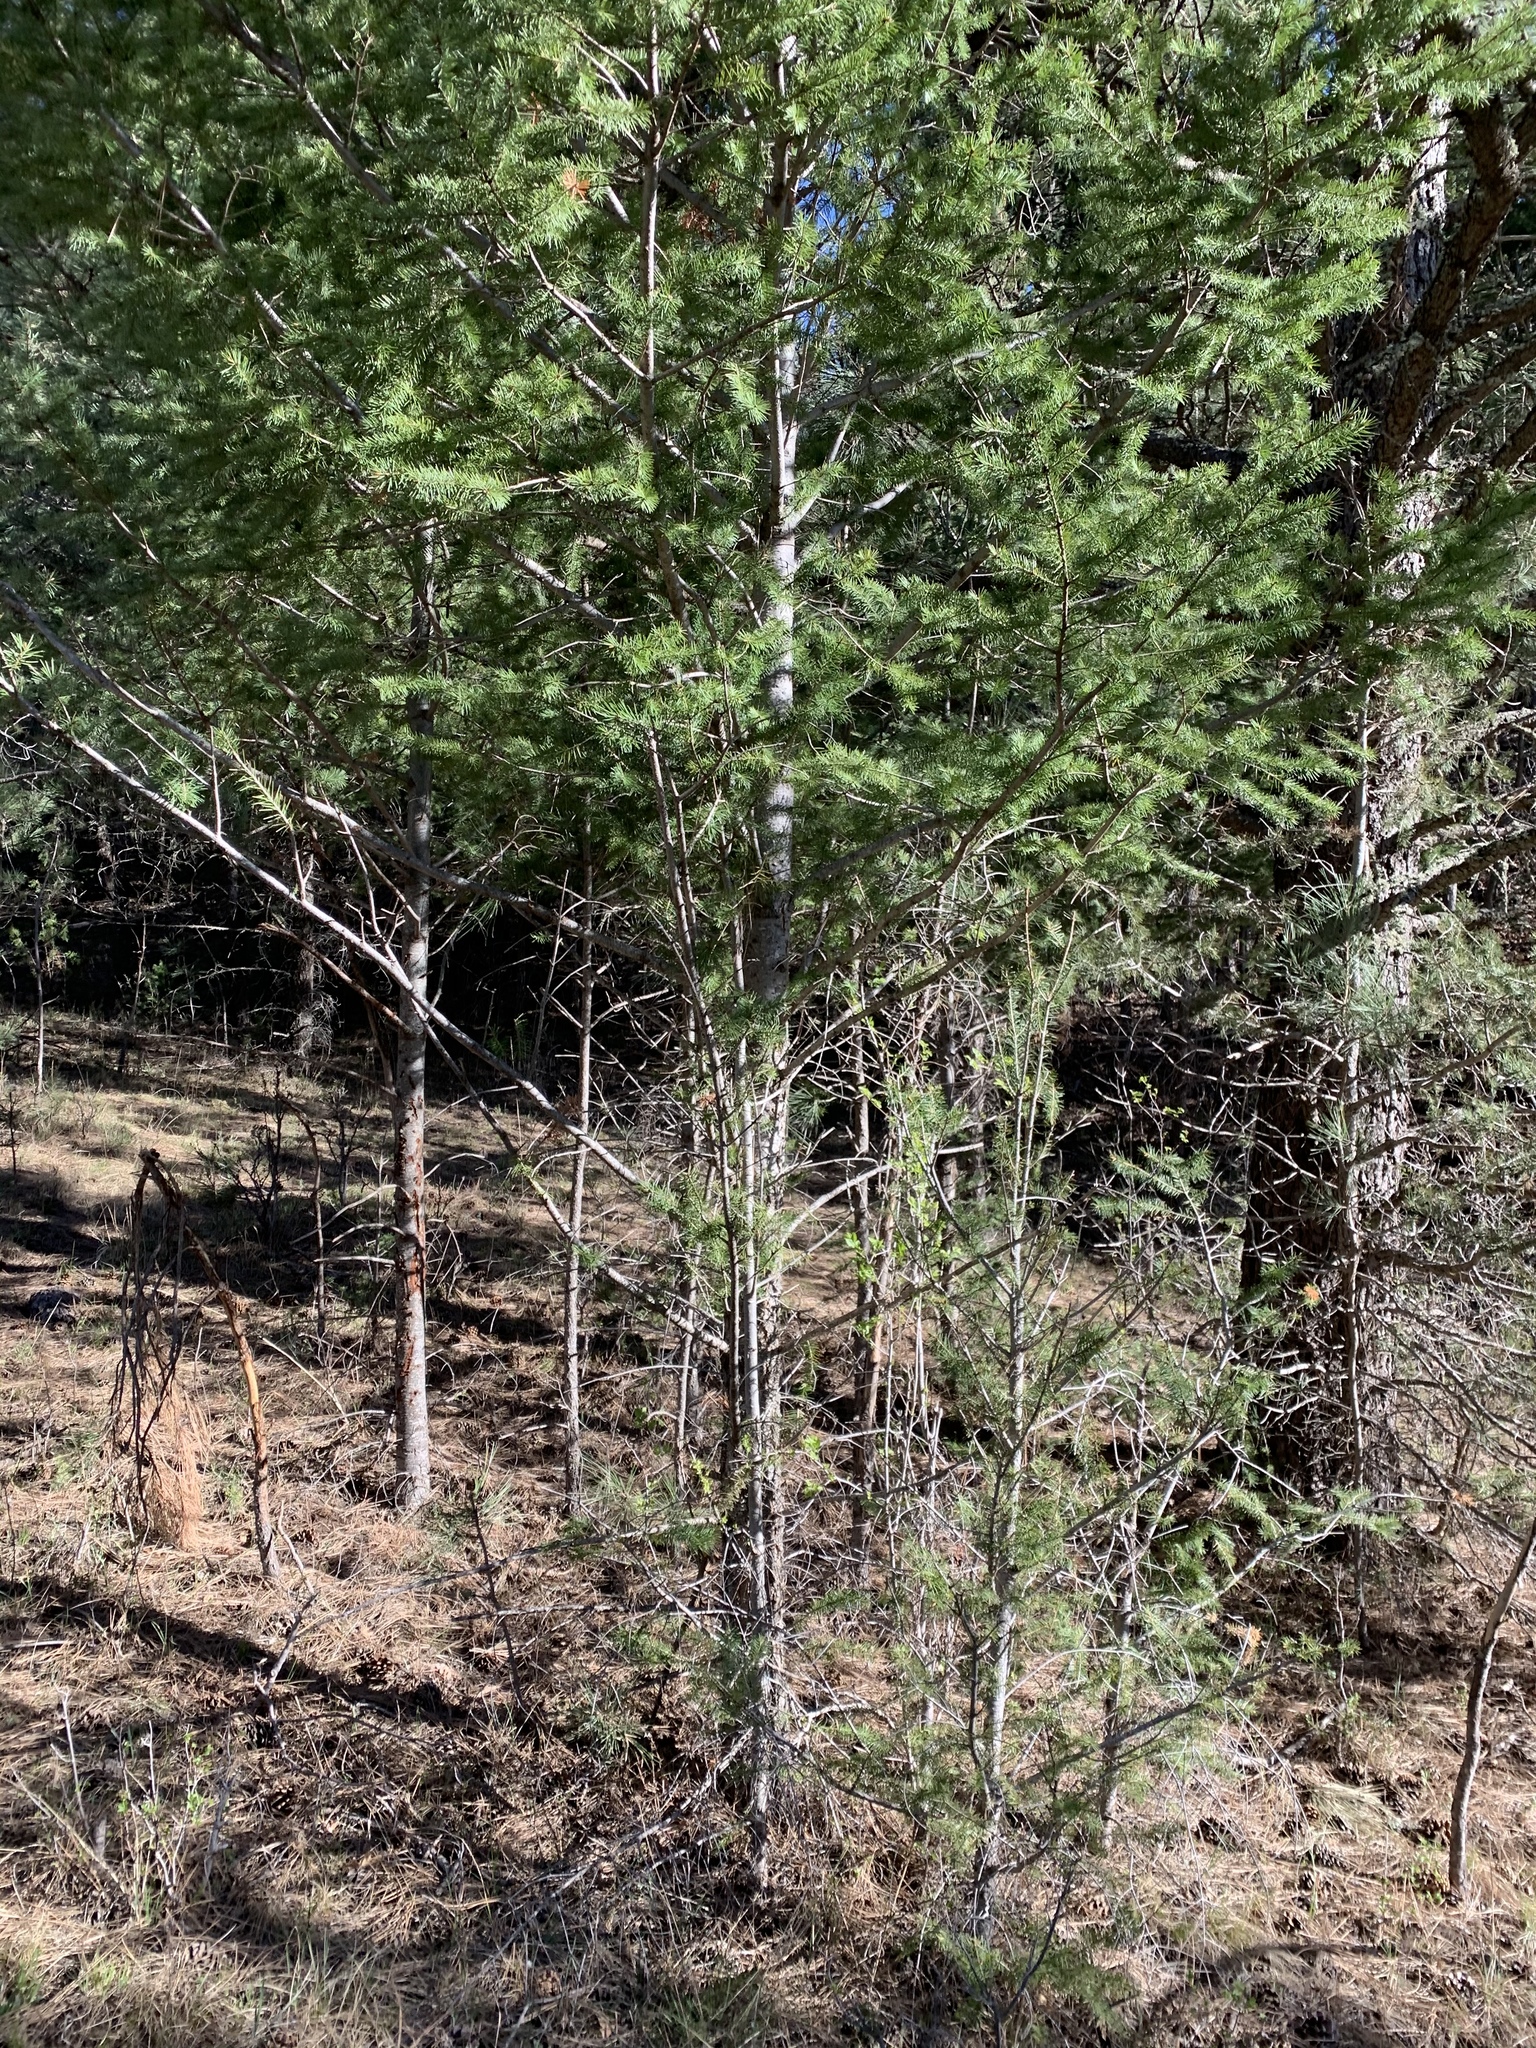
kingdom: Plantae
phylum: Tracheophyta
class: Pinopsida
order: Pinales
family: Pinaceae
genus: Pseudotsuga
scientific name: Pseudotsuga menziesii
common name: Douglas fir
